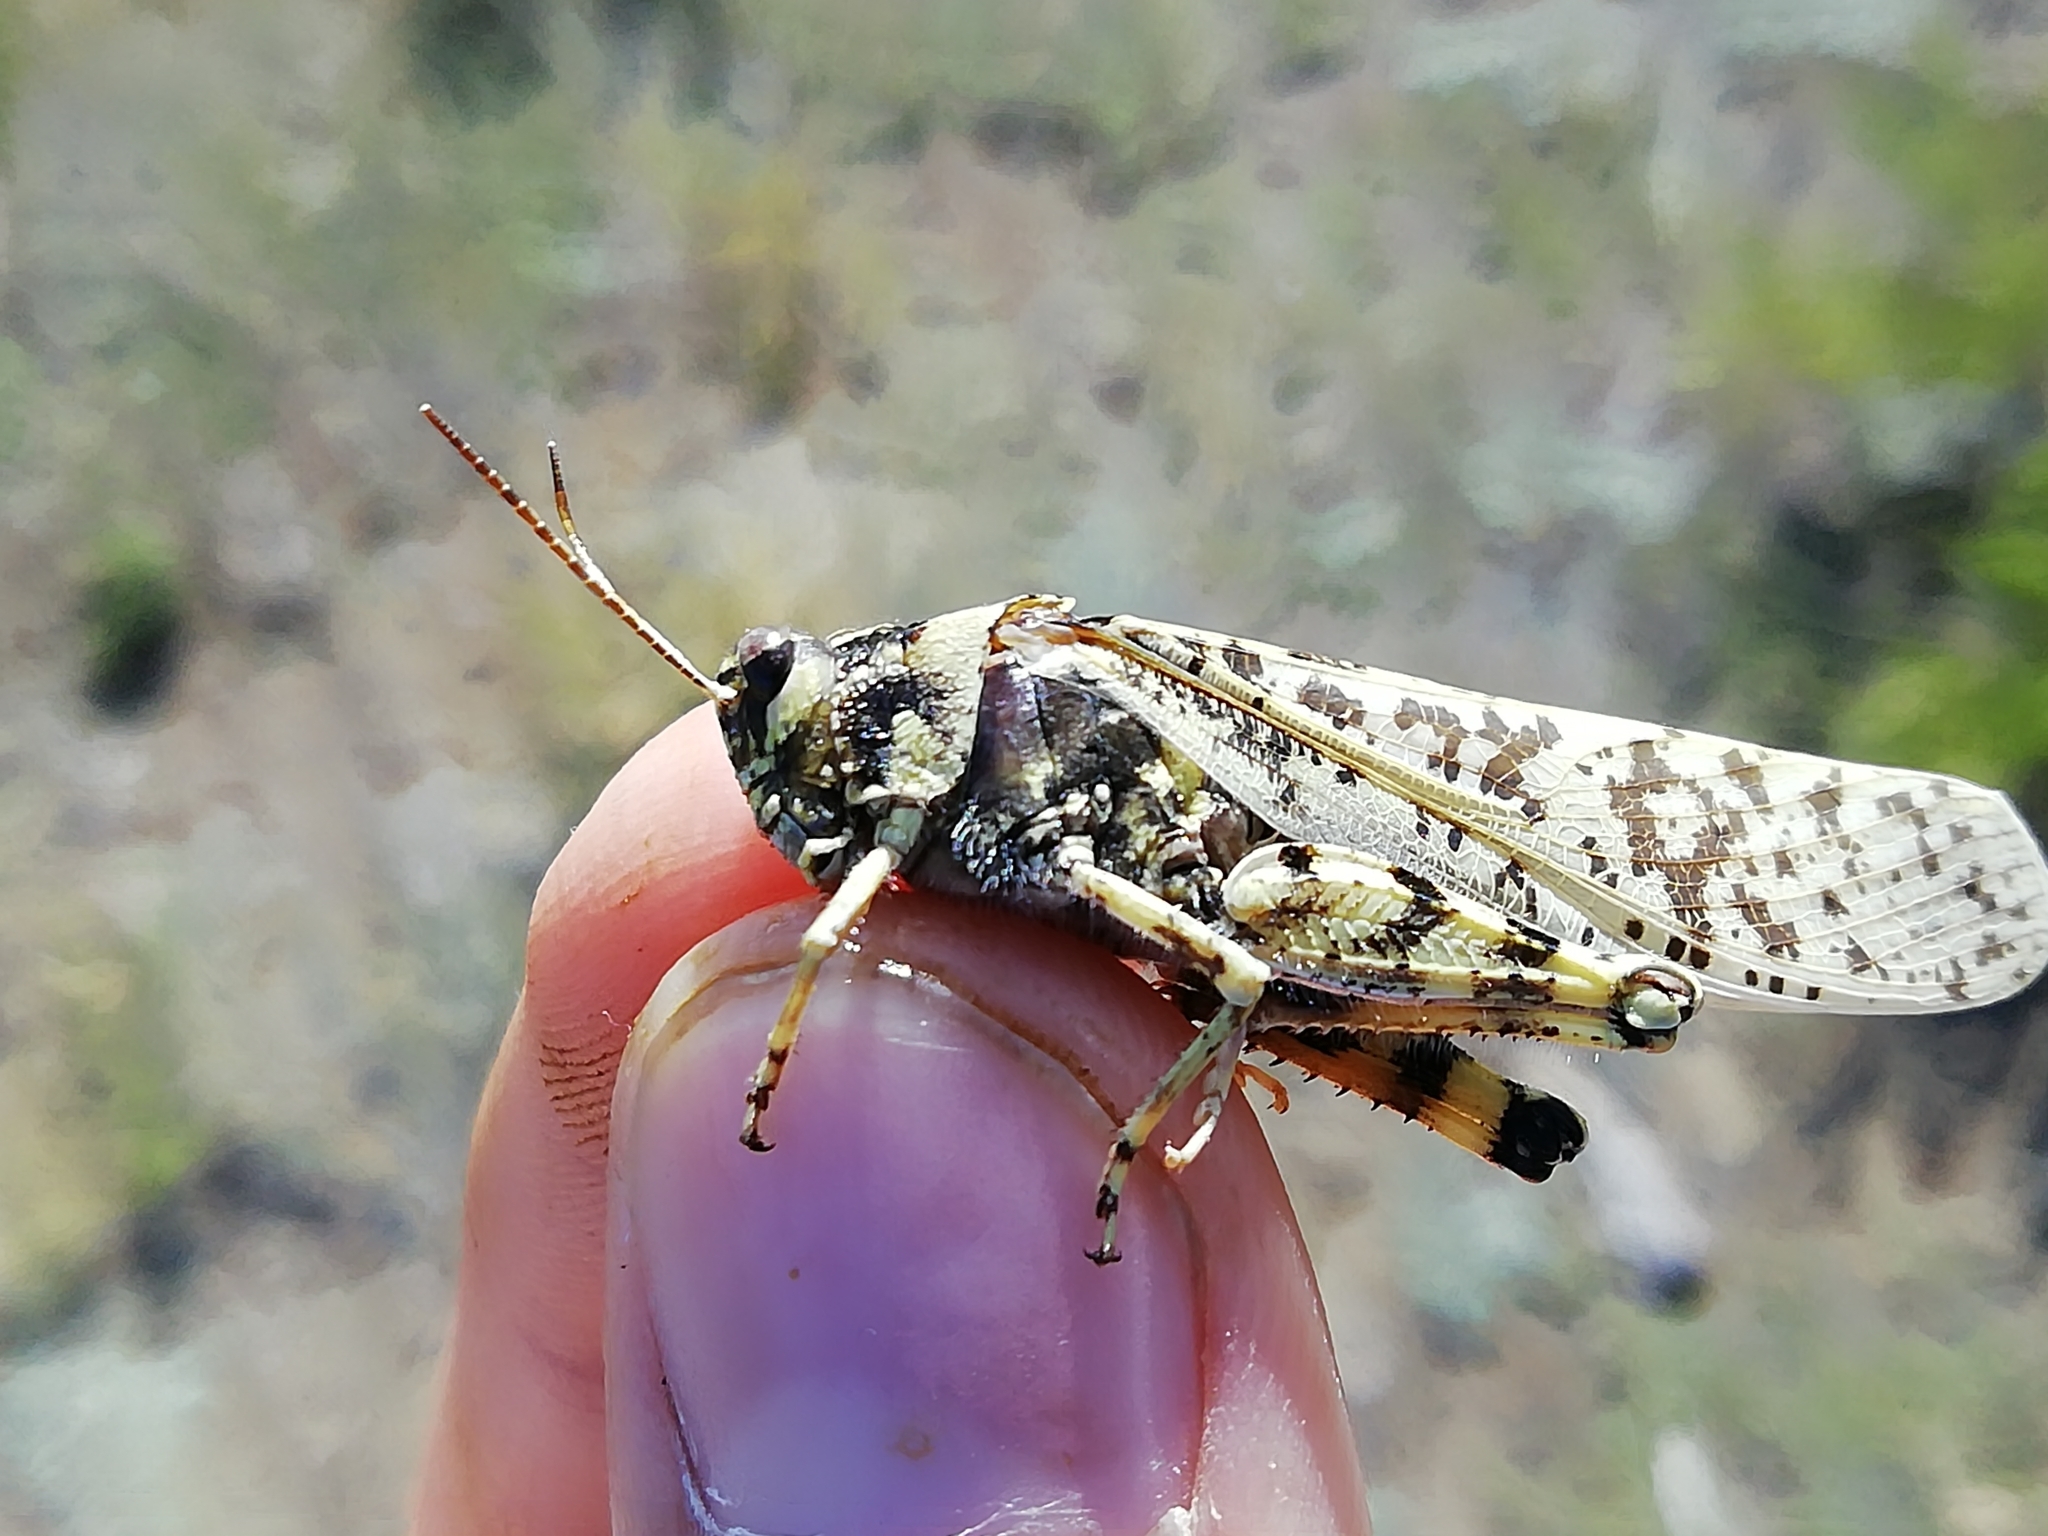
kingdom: Animalia
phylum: Arthropoda
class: Insecta
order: Orthoptera
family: Acrididae
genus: Angaracris
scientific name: Angaracris barabensis
